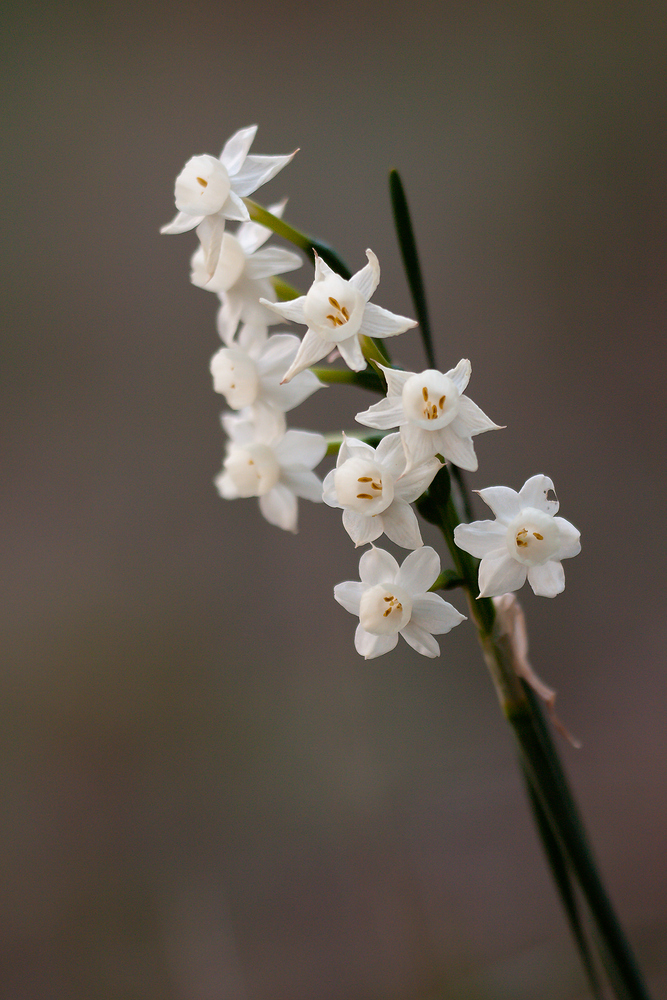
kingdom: Plantae
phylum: Tracheophyta
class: Liliopsida
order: Asparagales
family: Amaryllidaceae
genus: Narcissus
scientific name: Narcissus dubius
